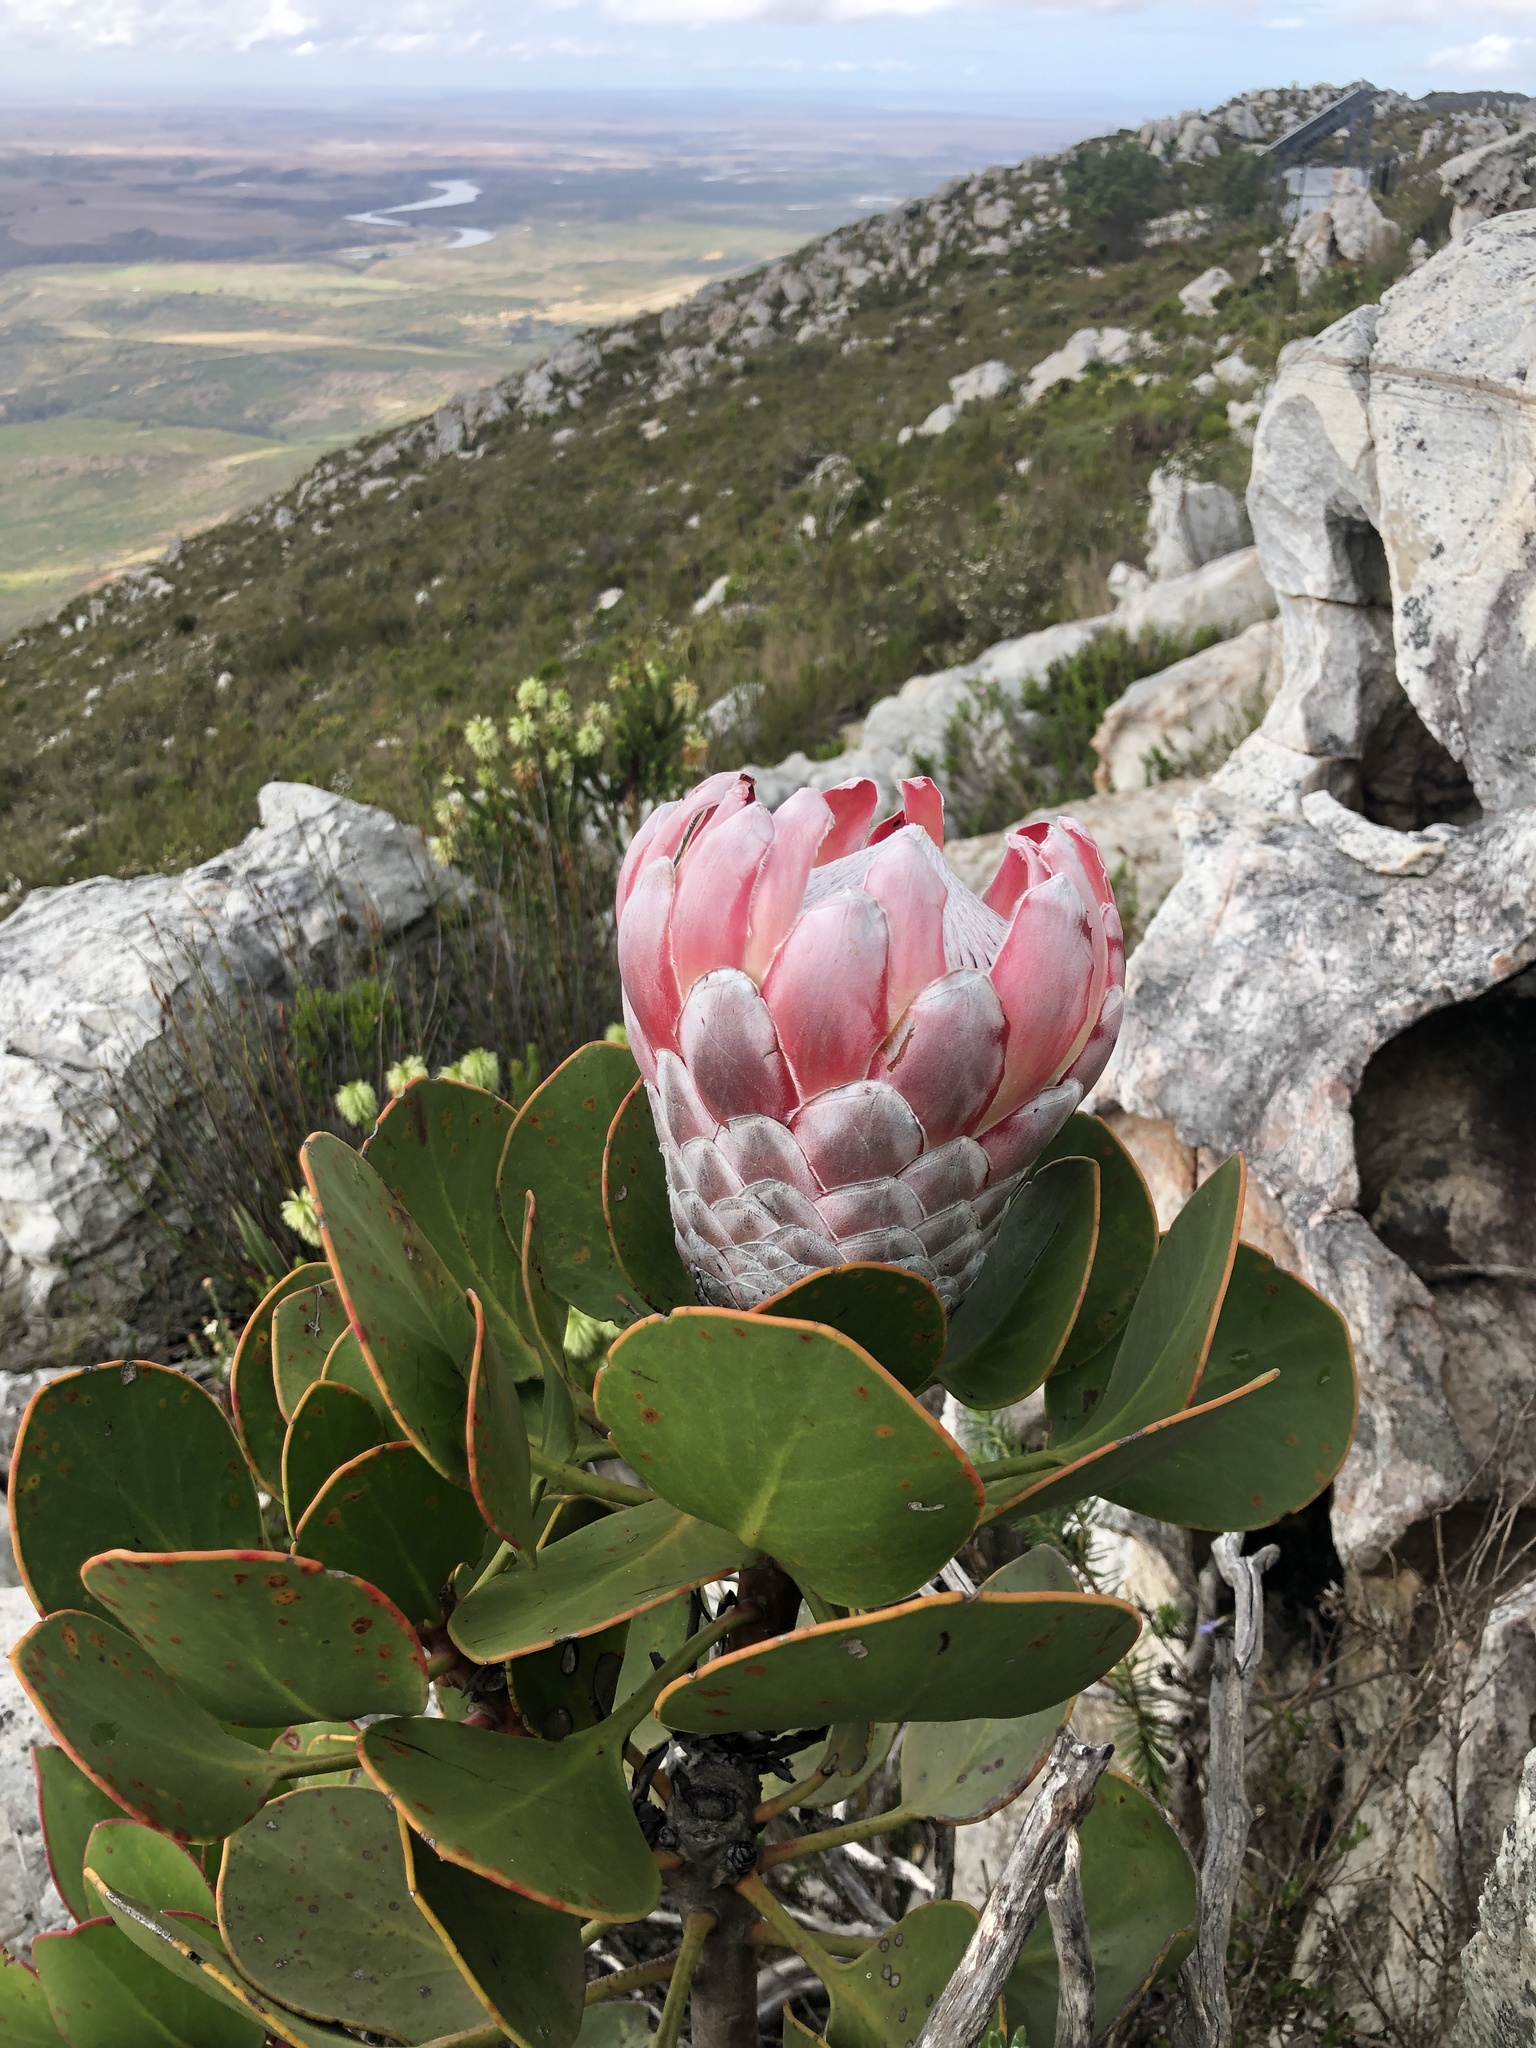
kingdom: Plantae
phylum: Tracheophyta
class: Magnoliopsida
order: Proteales
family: Proteaceae
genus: Protea
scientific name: Protea cynaroides
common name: King protea
